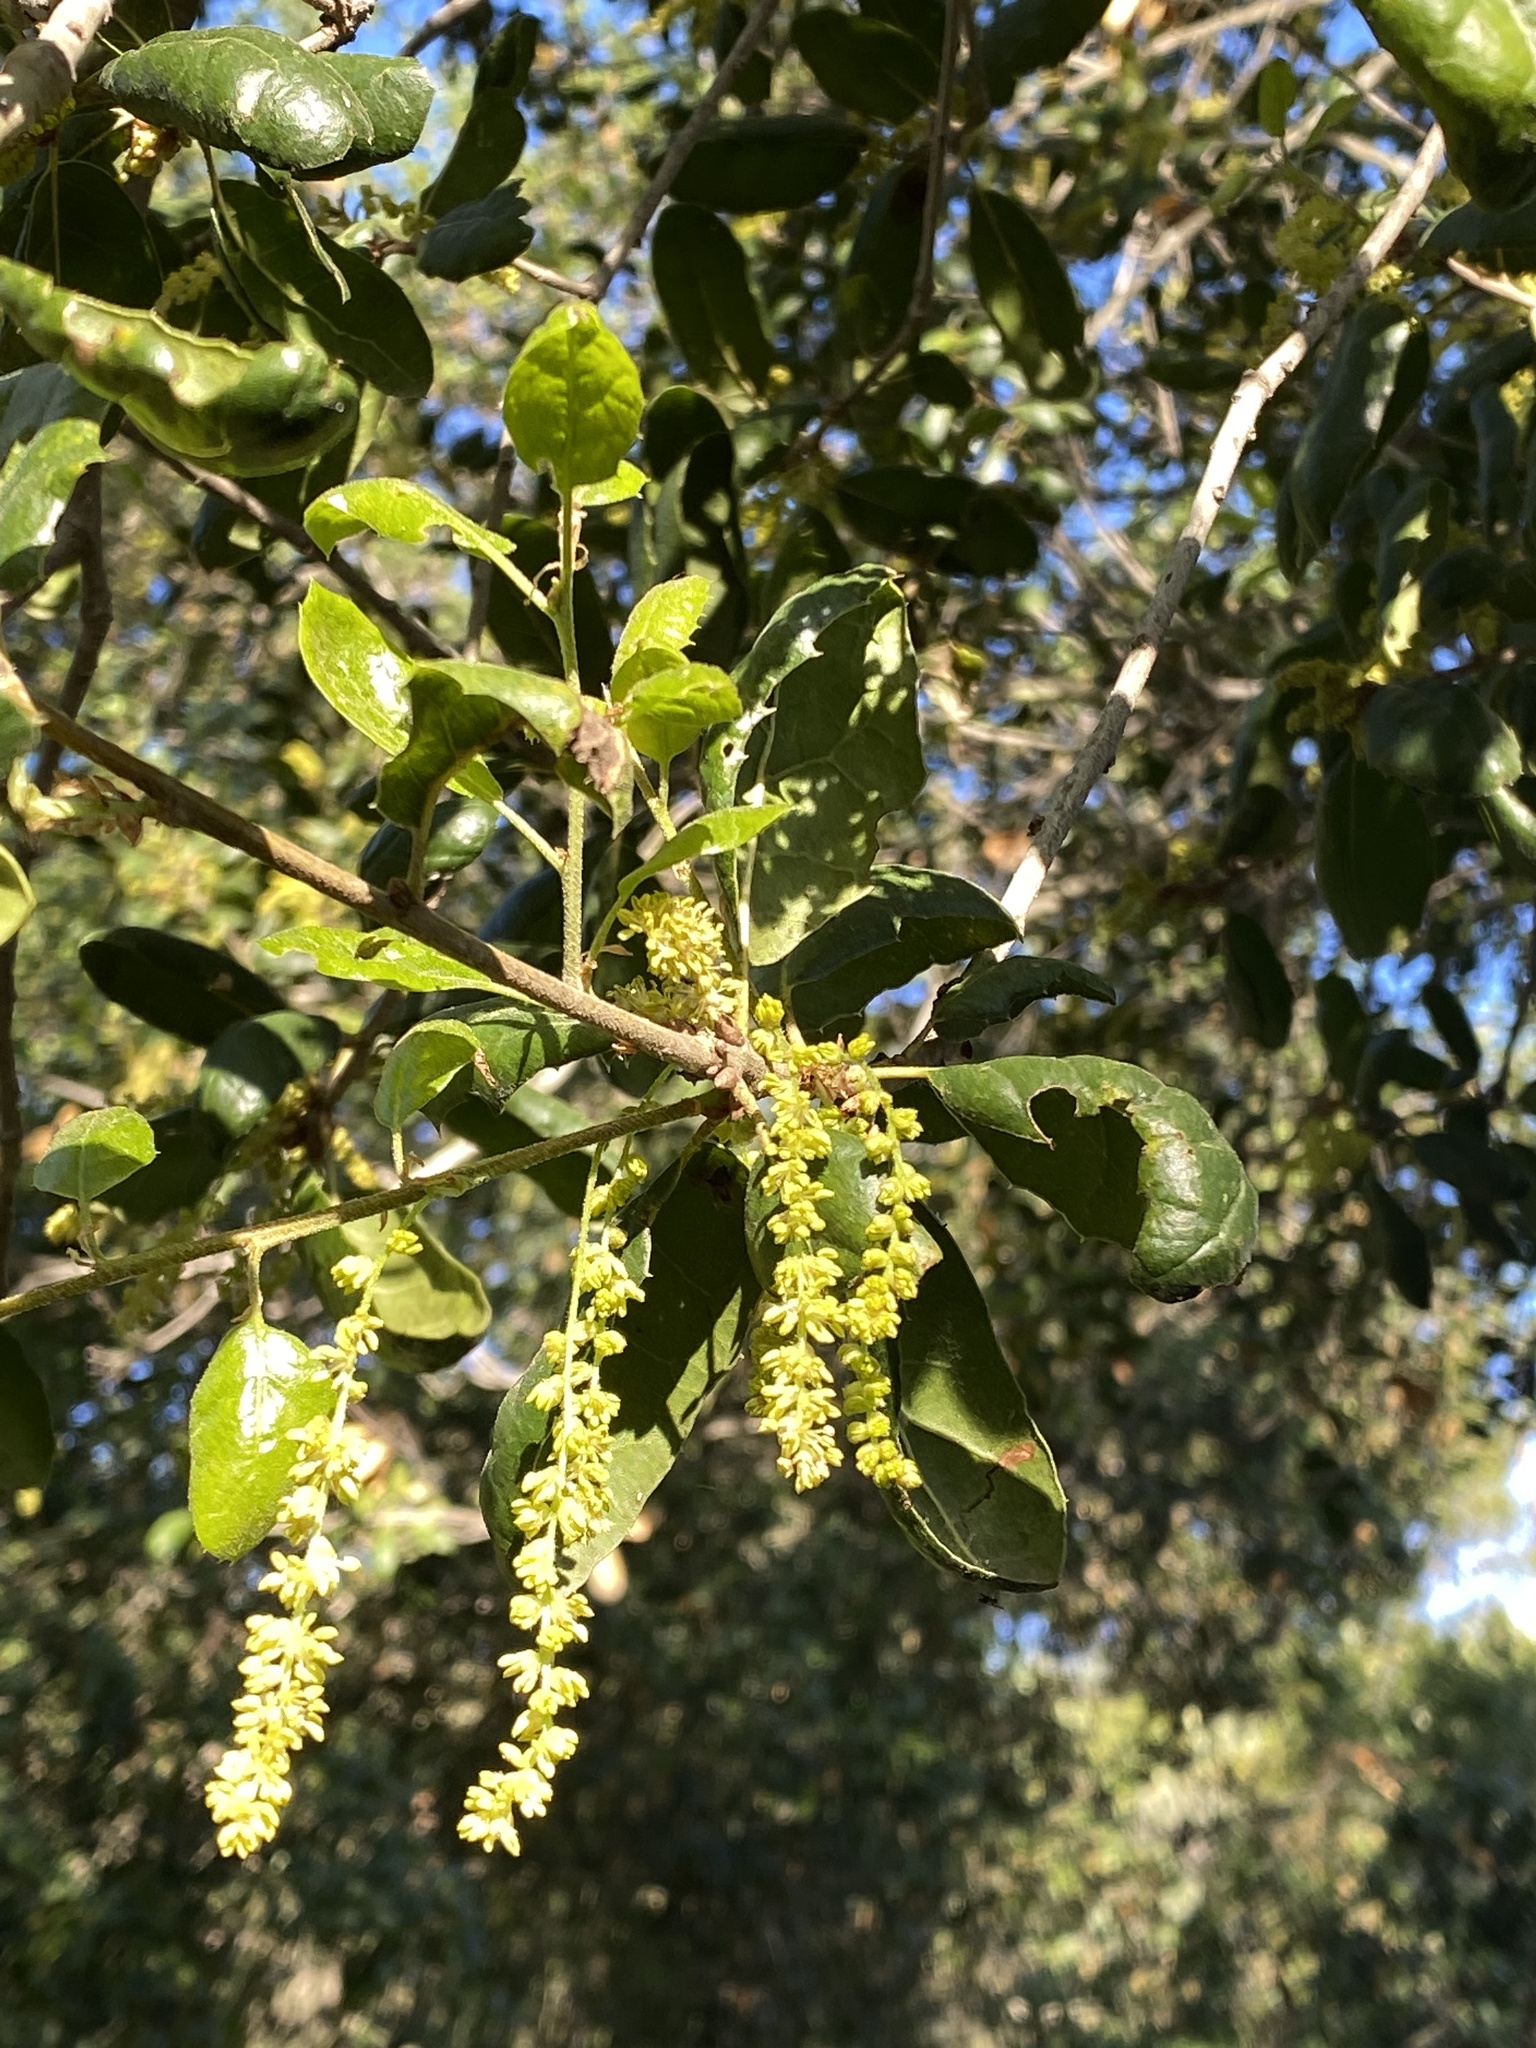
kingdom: Plantae
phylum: Tracheophyta
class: Magnoliopsida
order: Fagales
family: Fagaceae
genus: Quercus
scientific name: Quercus agrifolia
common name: California live oak
